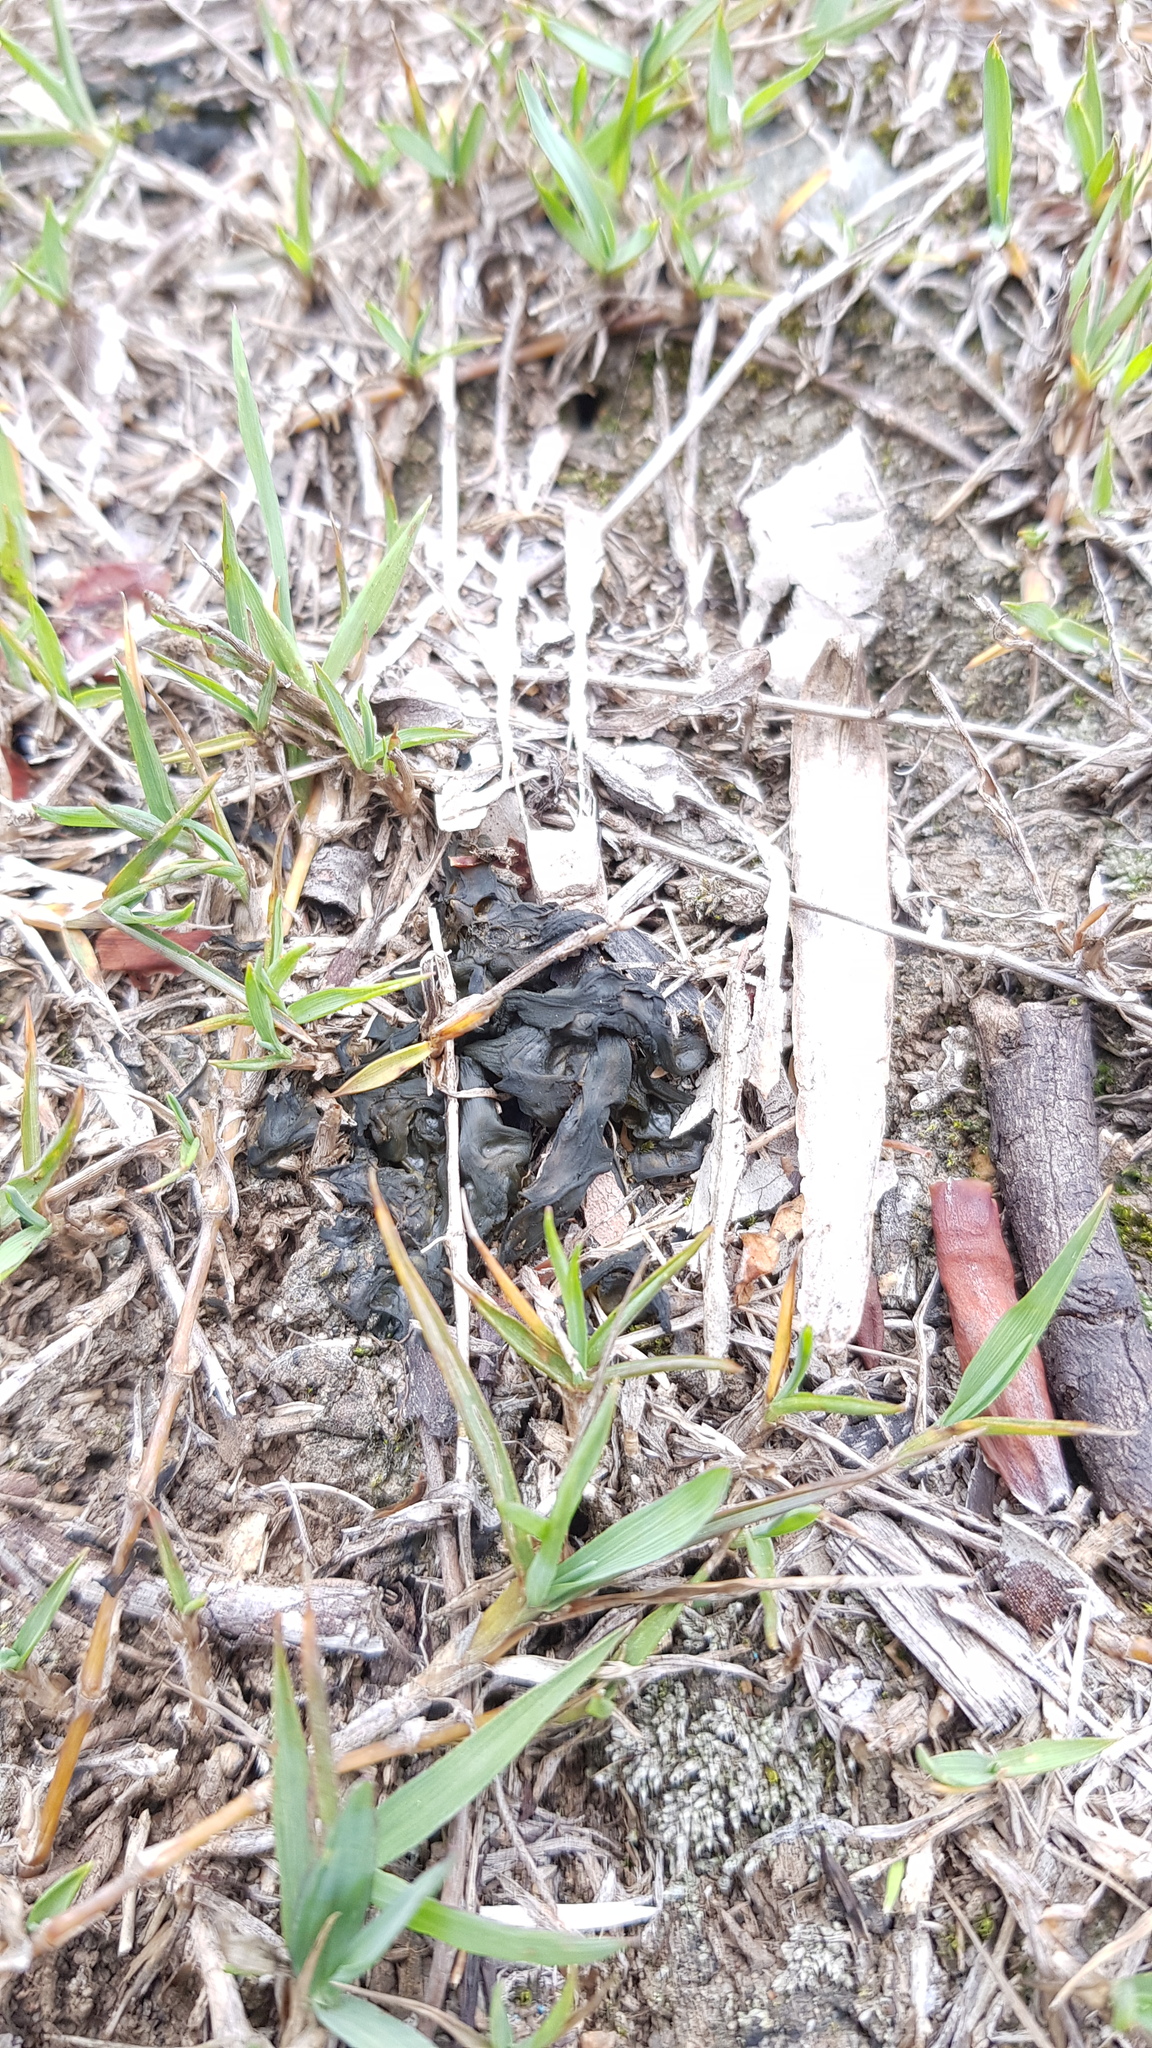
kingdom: Bacteria
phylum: Cyanobacteria
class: Cyanobacteriia
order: Cyanobacteriales
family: Nostocaceae
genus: Nostoc
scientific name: Nostoc commune
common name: Star jelly
